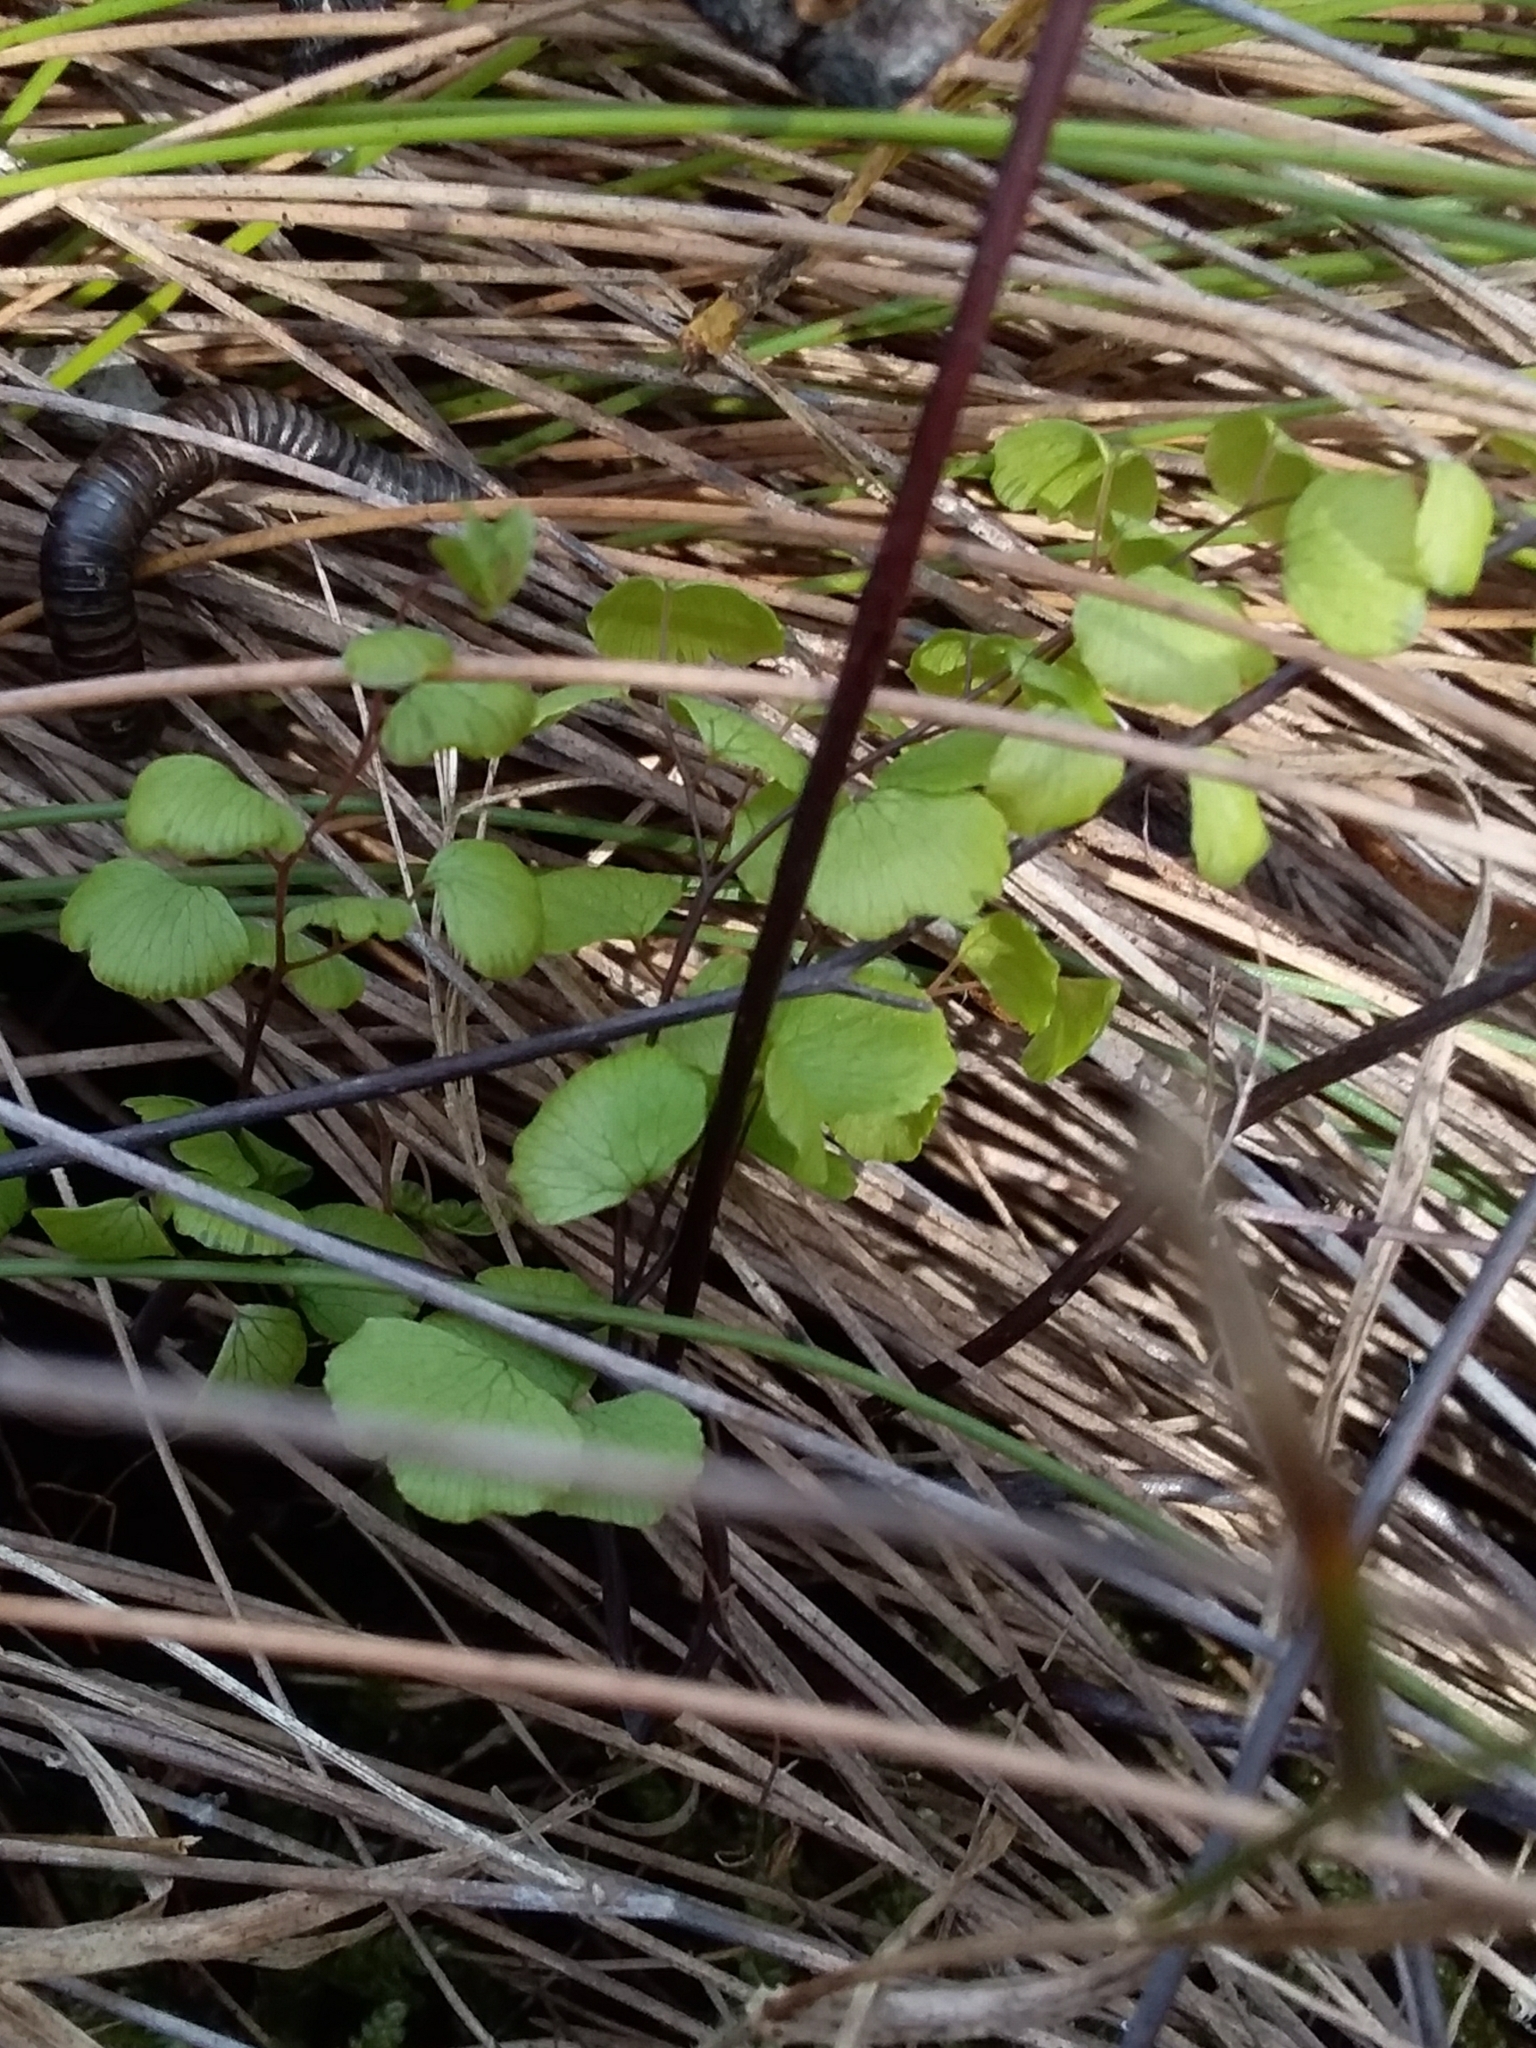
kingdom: Plantae
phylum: Tracheophyta
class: Polypodiopsida
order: Polypodiales
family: Pteridaceae
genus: Adiantum
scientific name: Adiantum aethiopicum
